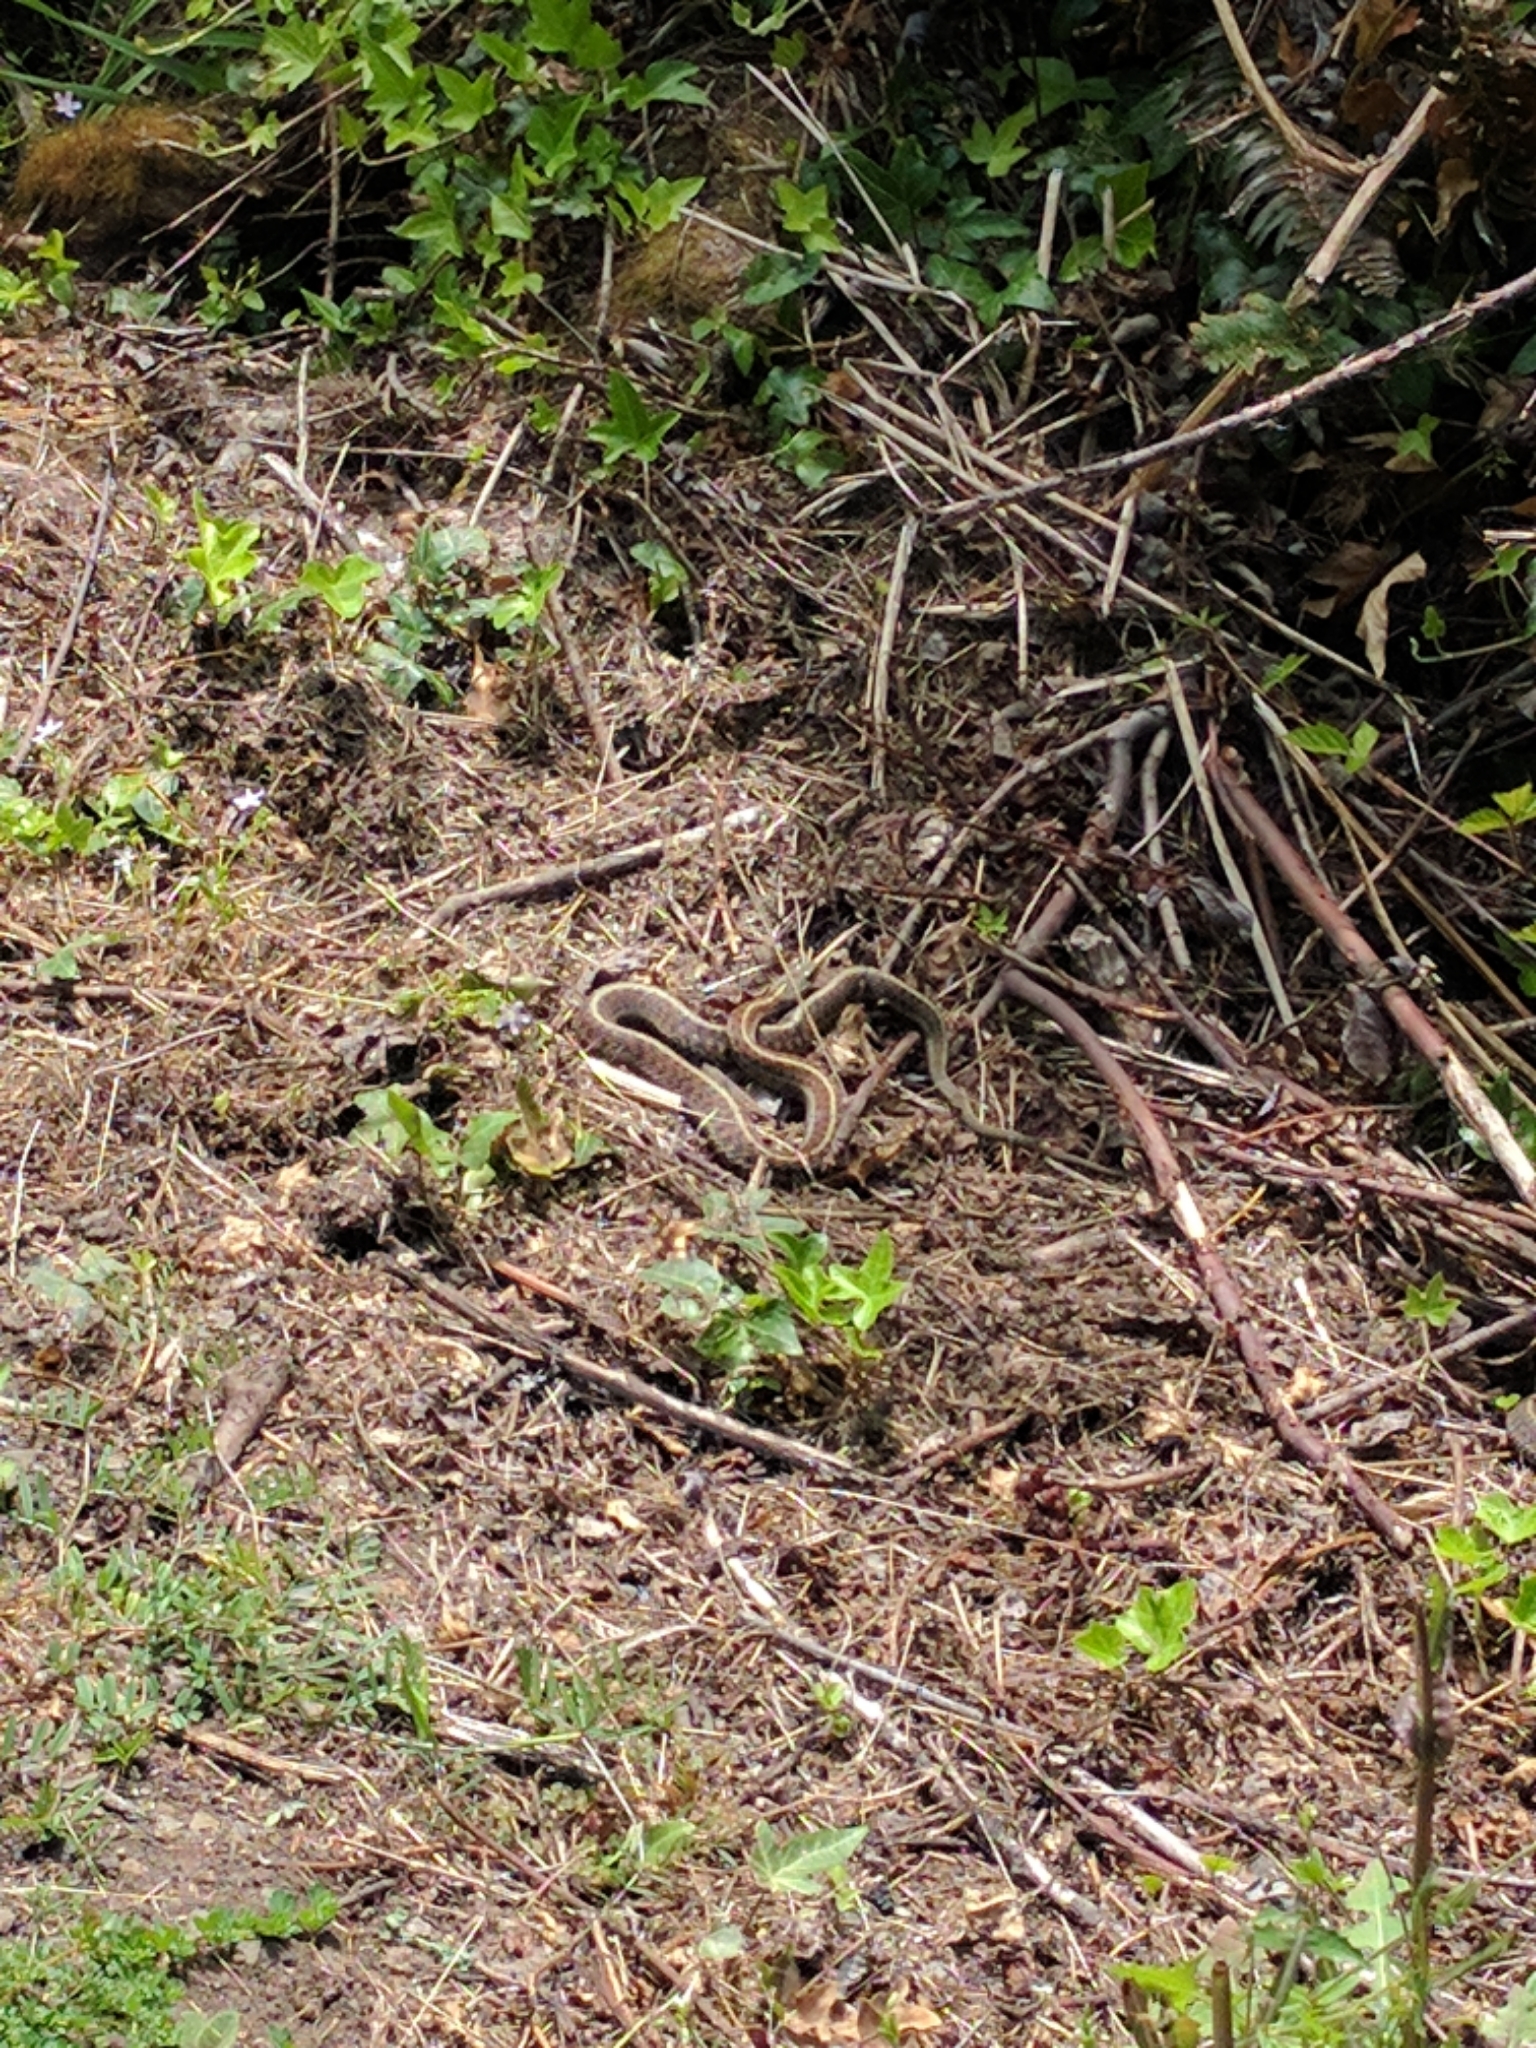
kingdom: Animalia
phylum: Chordata
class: Squamata
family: Colubridae
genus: Thamnophis
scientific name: Thamnophis elegans
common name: Western terrestrial garter snake
